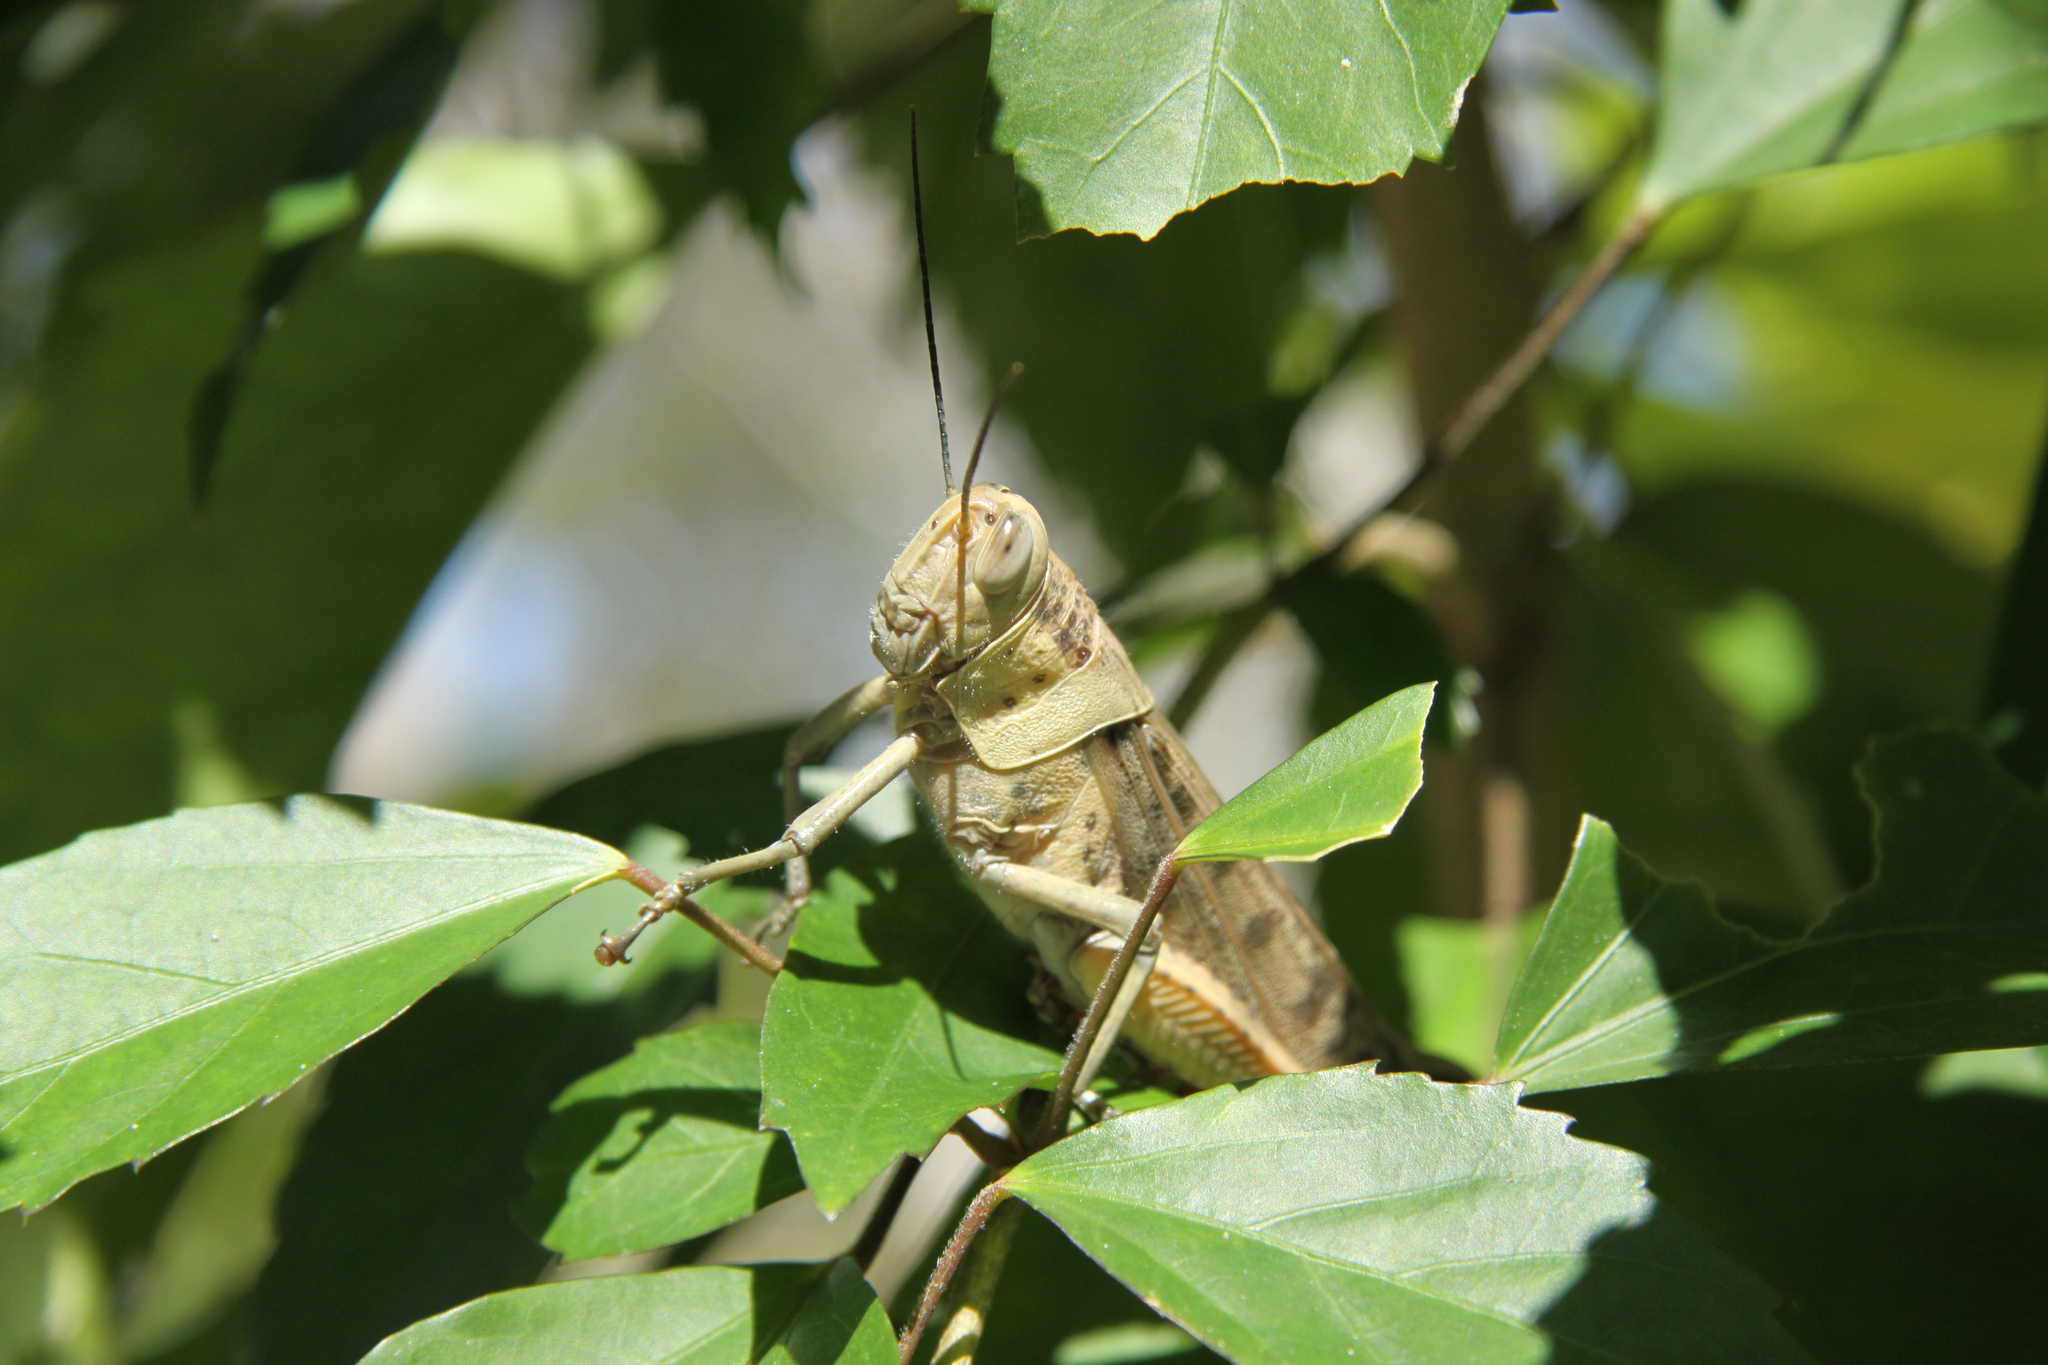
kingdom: Animalia
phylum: Arthropoda
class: Insecta
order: Orthoptera
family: Acrididae
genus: Valanga
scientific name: Valanga irregularis
